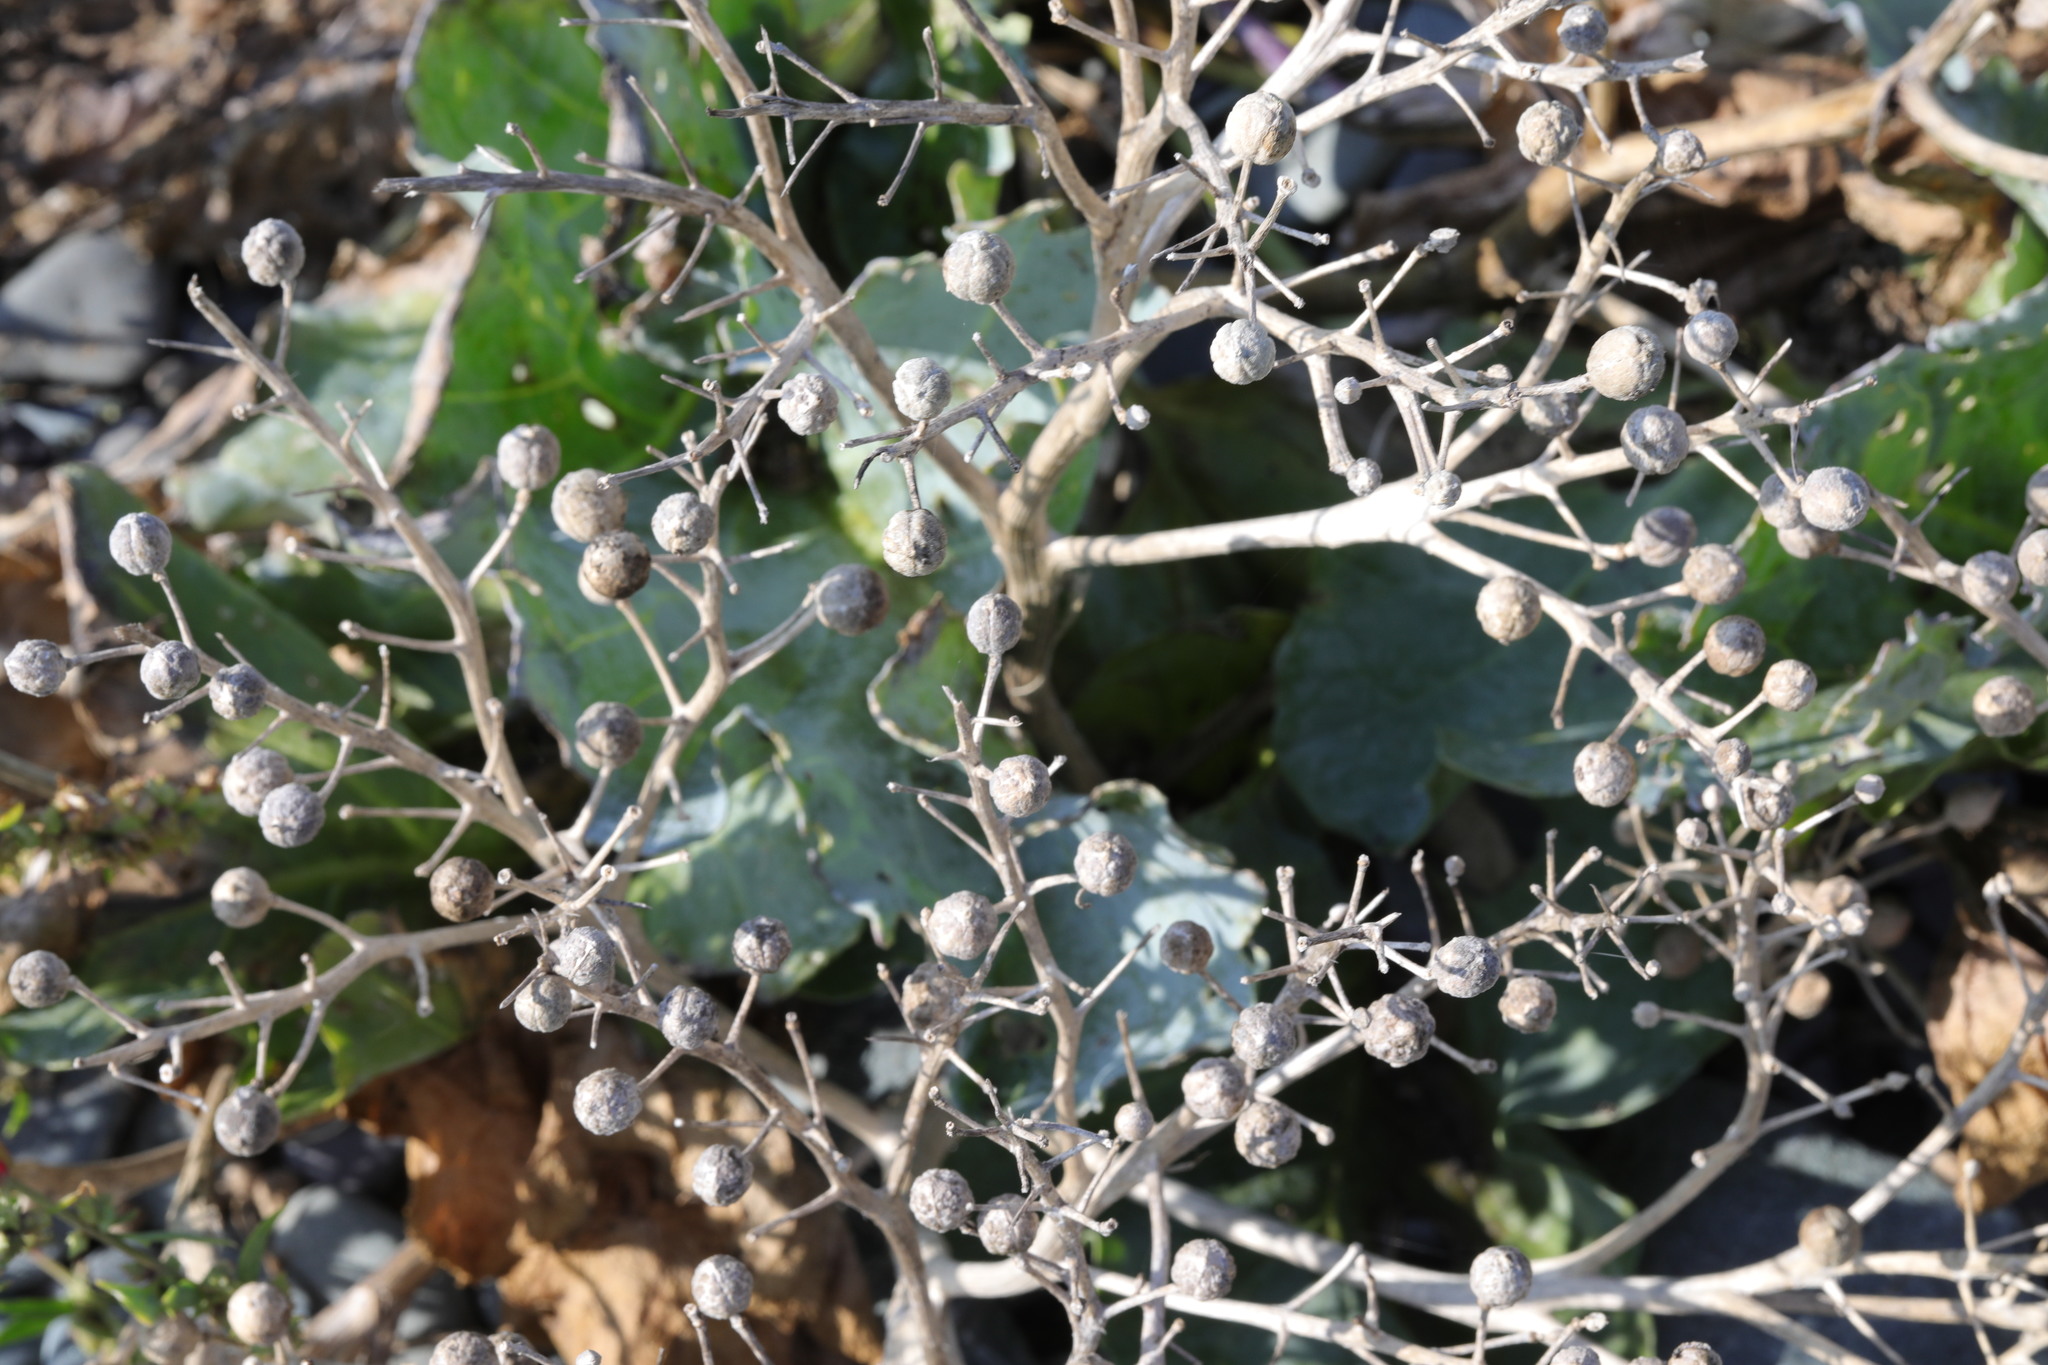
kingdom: Plantae
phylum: Tracheophyta
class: Magnoliopsida
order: Brassicales
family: Brassicaceae
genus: Crambe
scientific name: Crambe maritima
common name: Sea-kale
